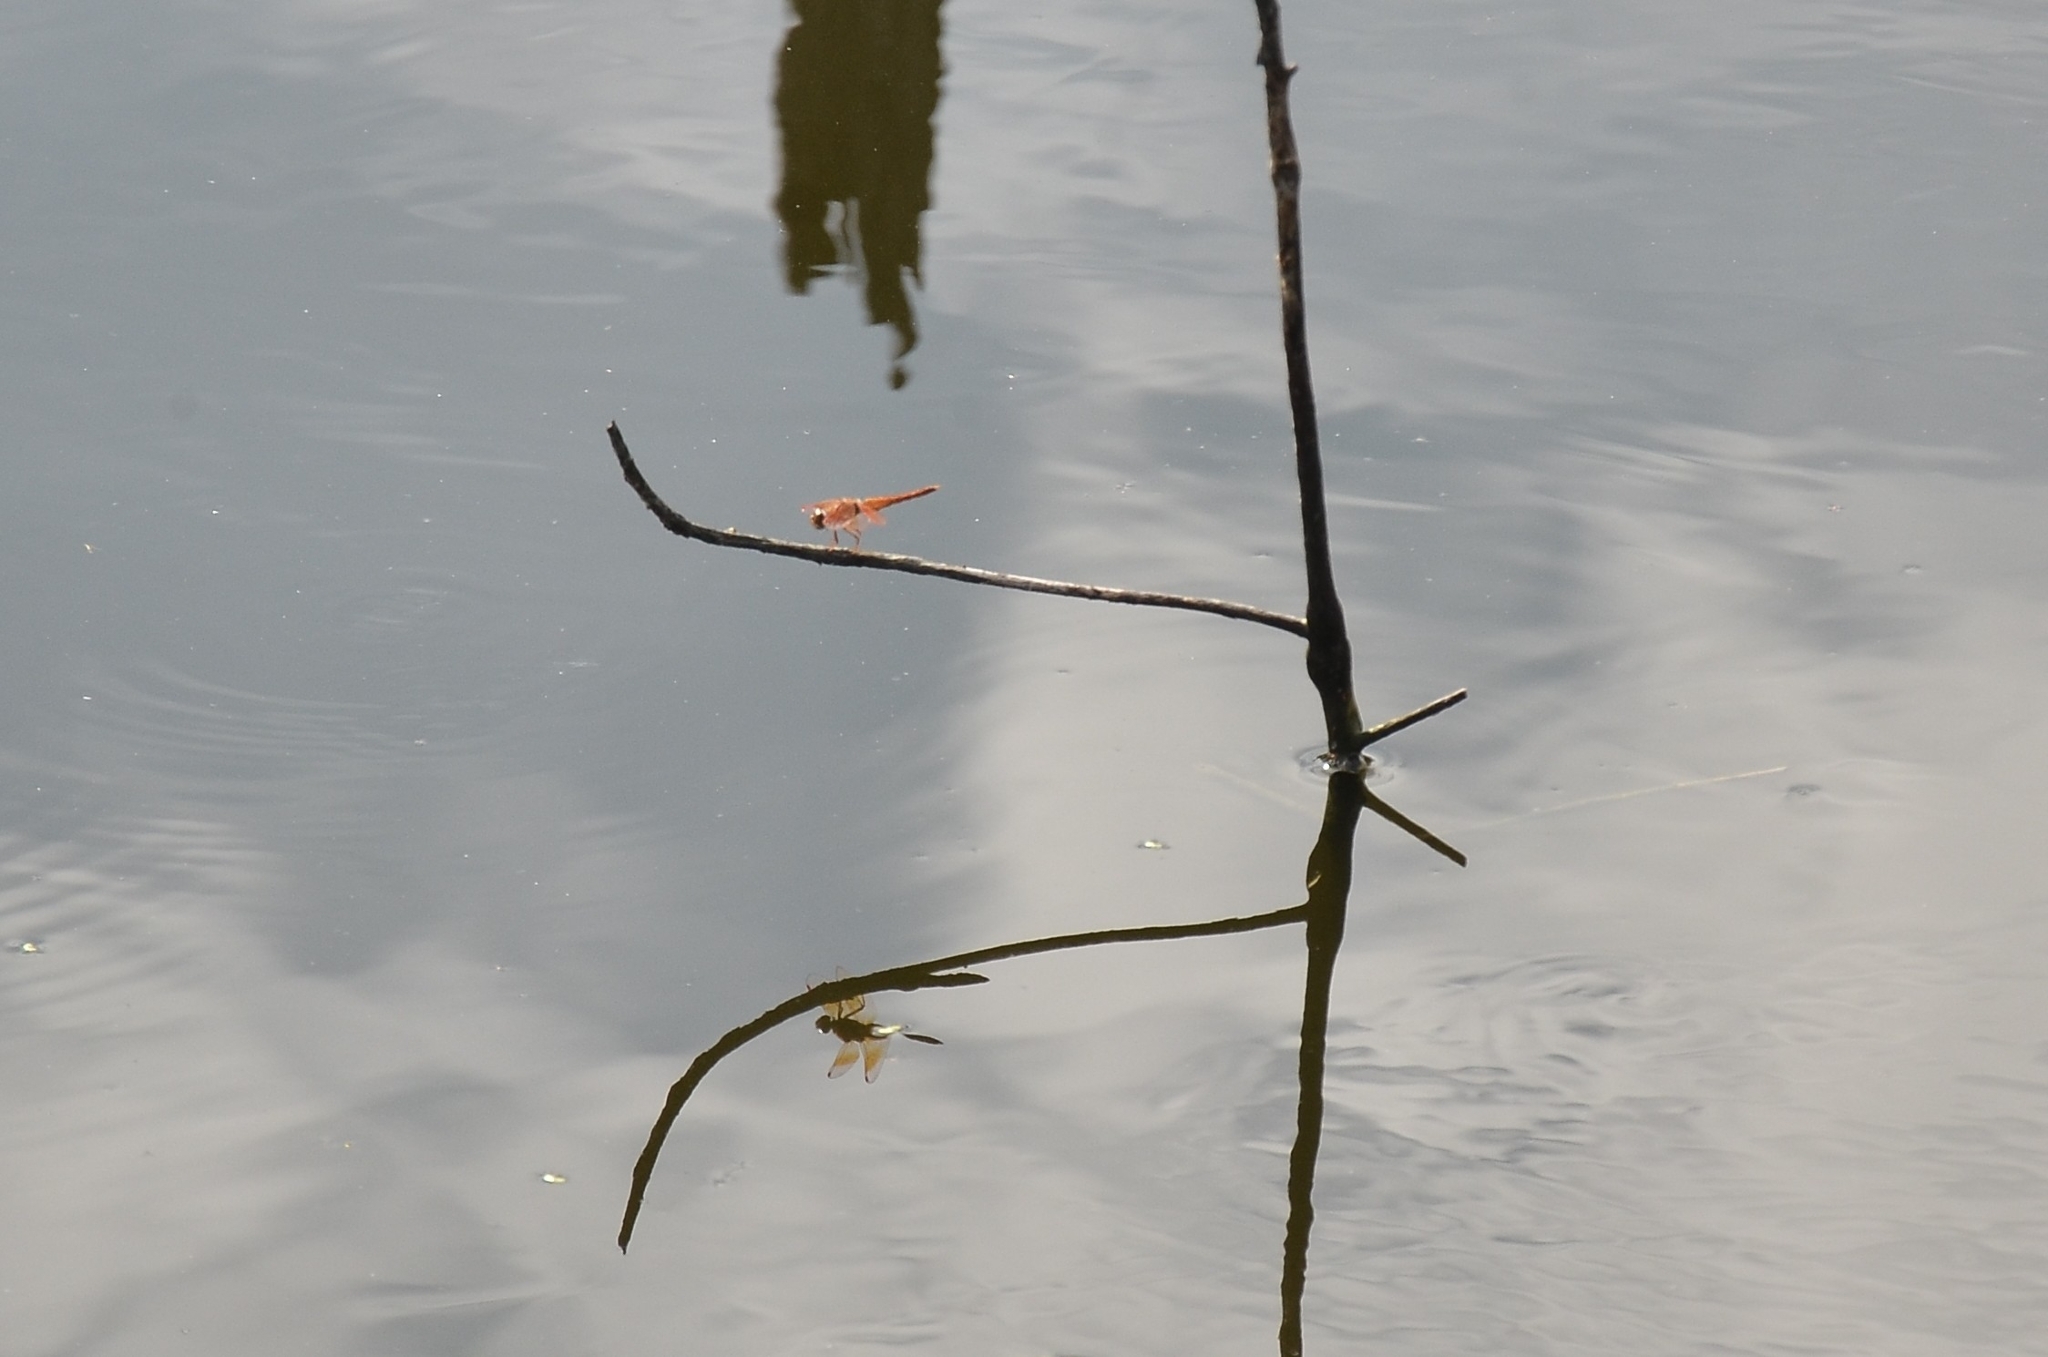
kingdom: Animalia
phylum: Arthropoda
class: Insecta
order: Odonata
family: Libellulidae
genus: Brachythemis
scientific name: Brachythemis contaminata
